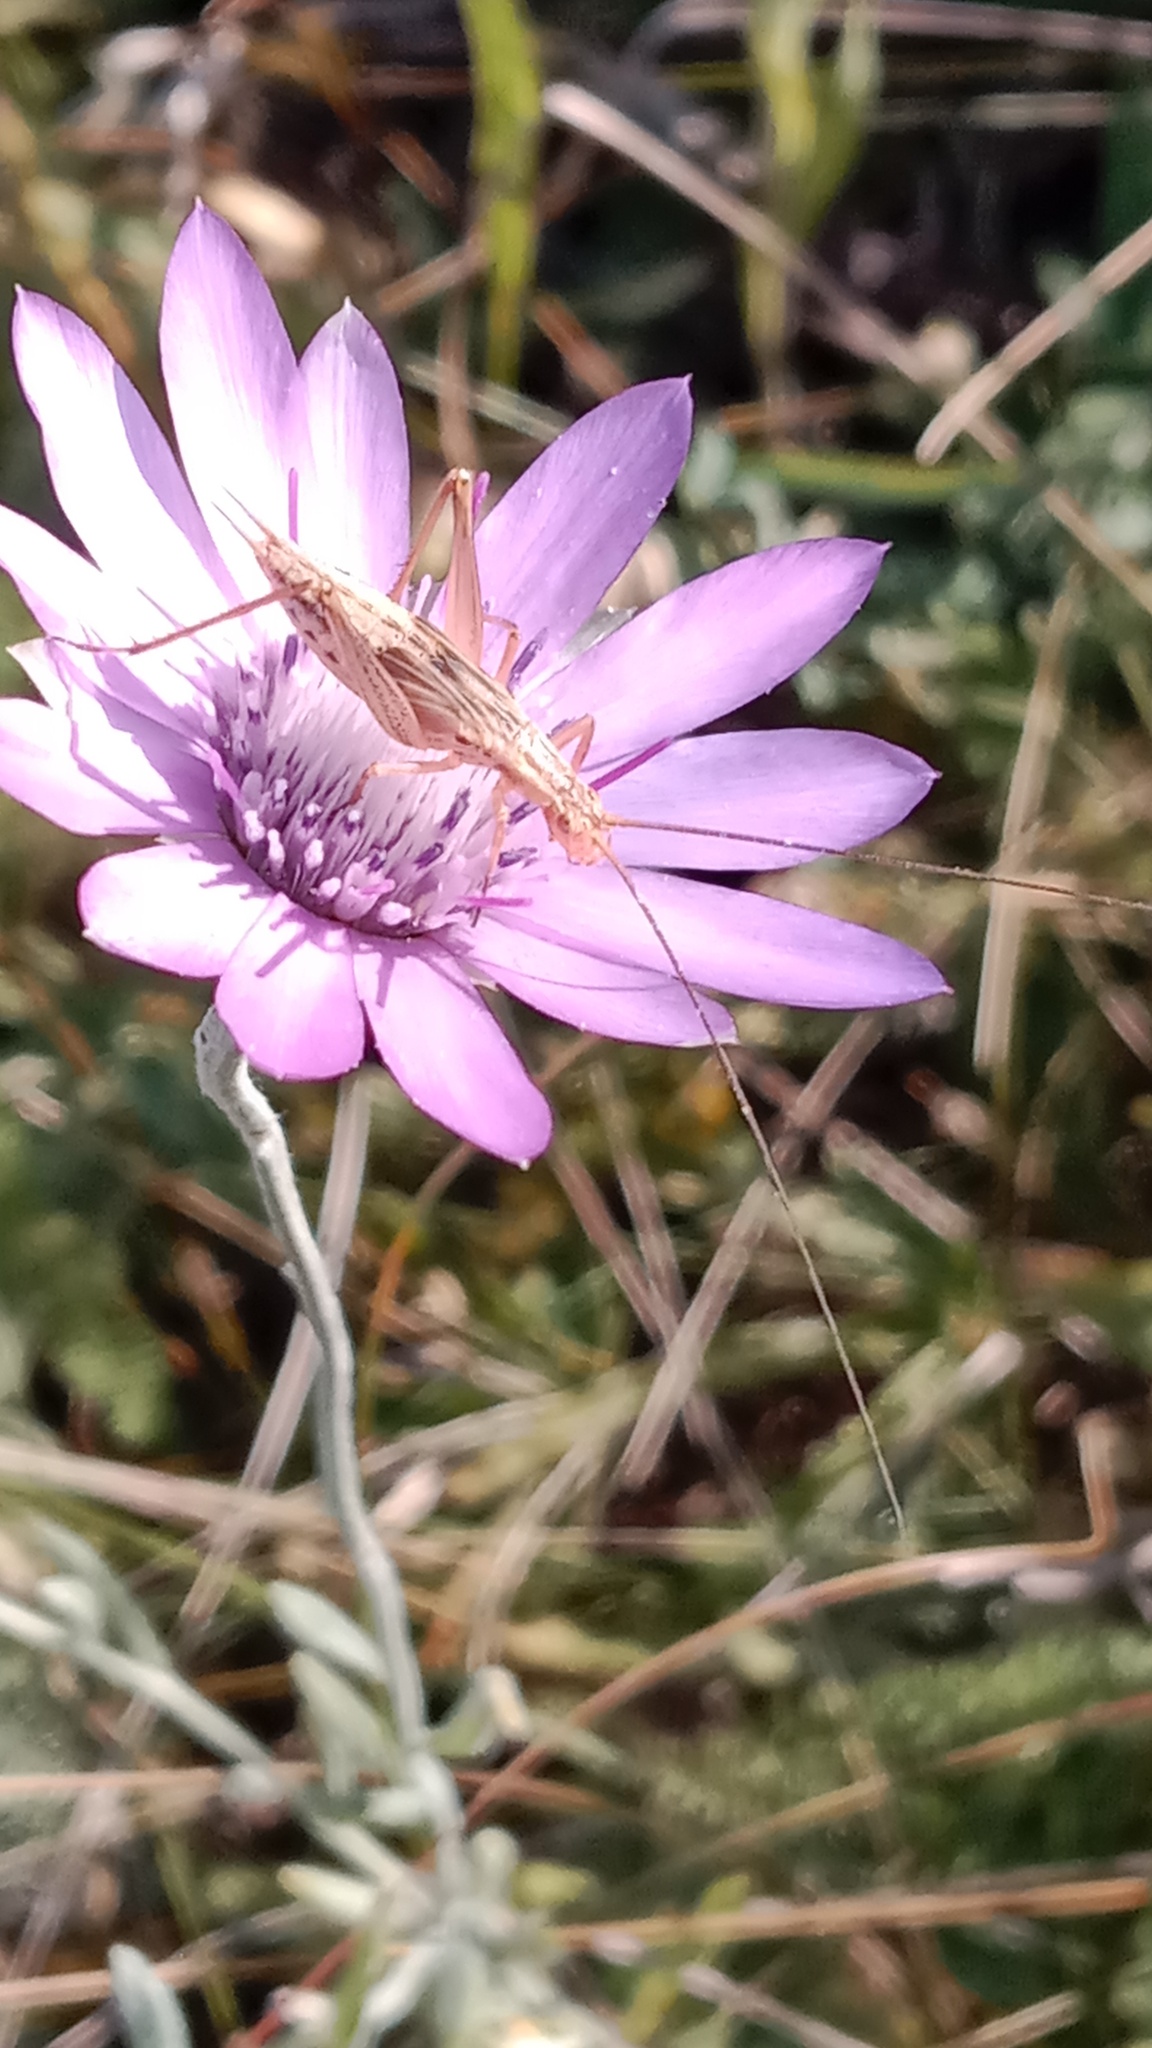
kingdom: Animalia
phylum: Arthropoda
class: Insecta
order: Orthoptera
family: Gryllidae
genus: Oecanthus
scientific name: Oecanthus pellucens
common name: Tree-cricket
